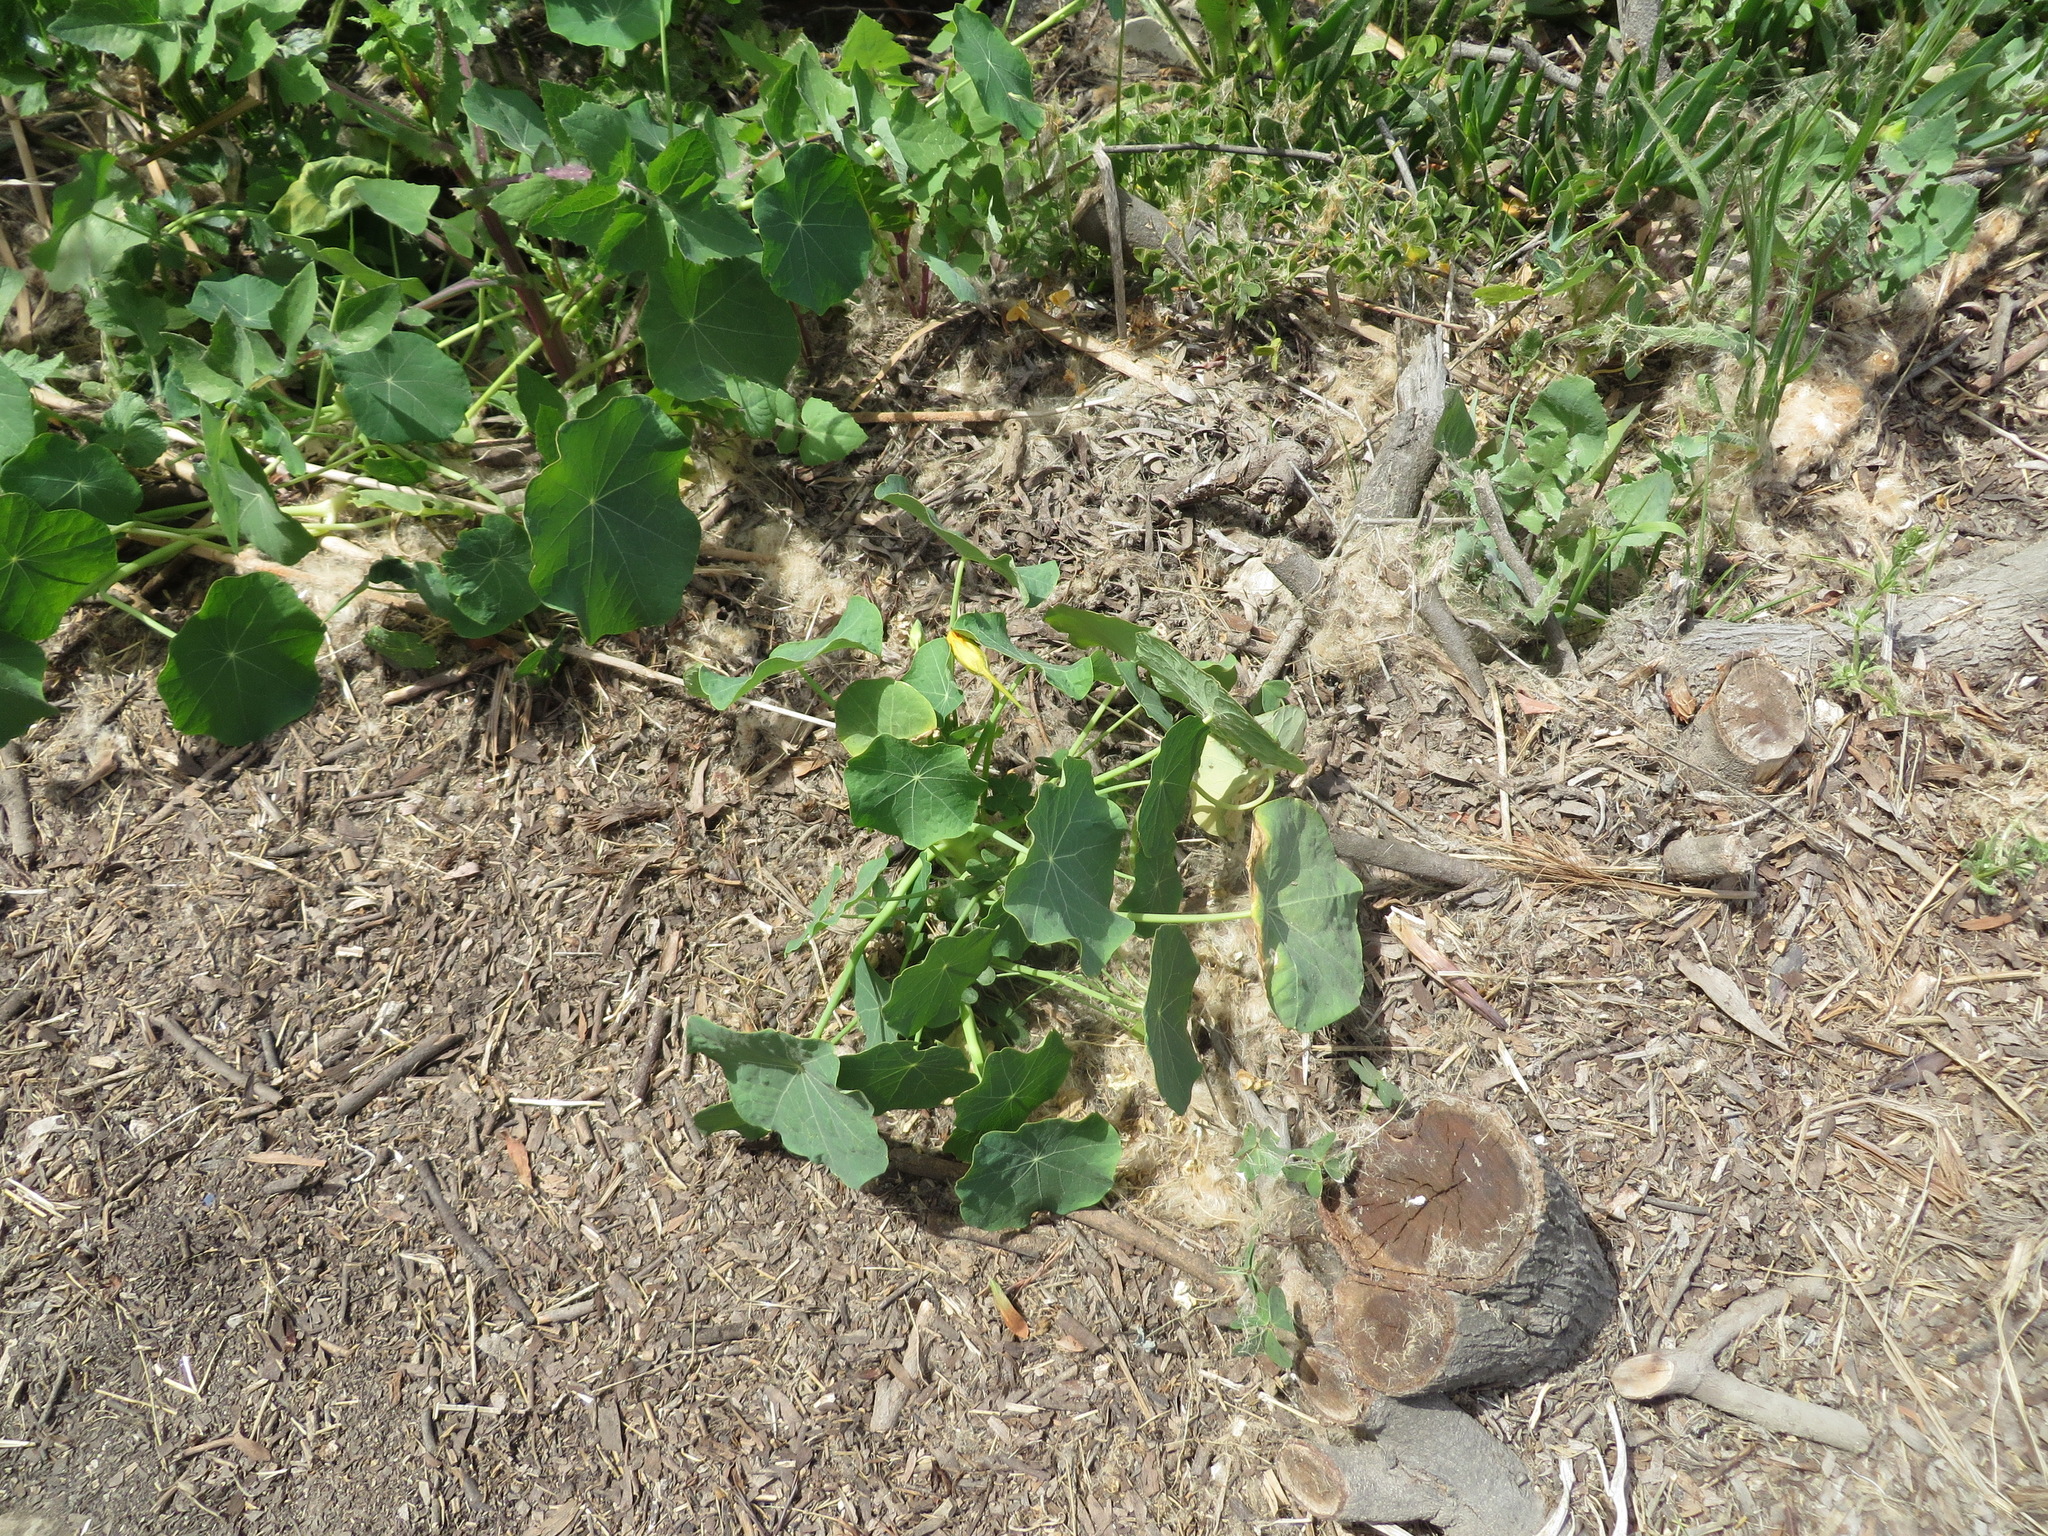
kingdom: Plantae
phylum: Tracheophyta
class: Magnoliopsida
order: Brassicales
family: Tropaeolaceae
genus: Tropaeolum
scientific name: Tropaeolum majus
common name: Nasturtium
